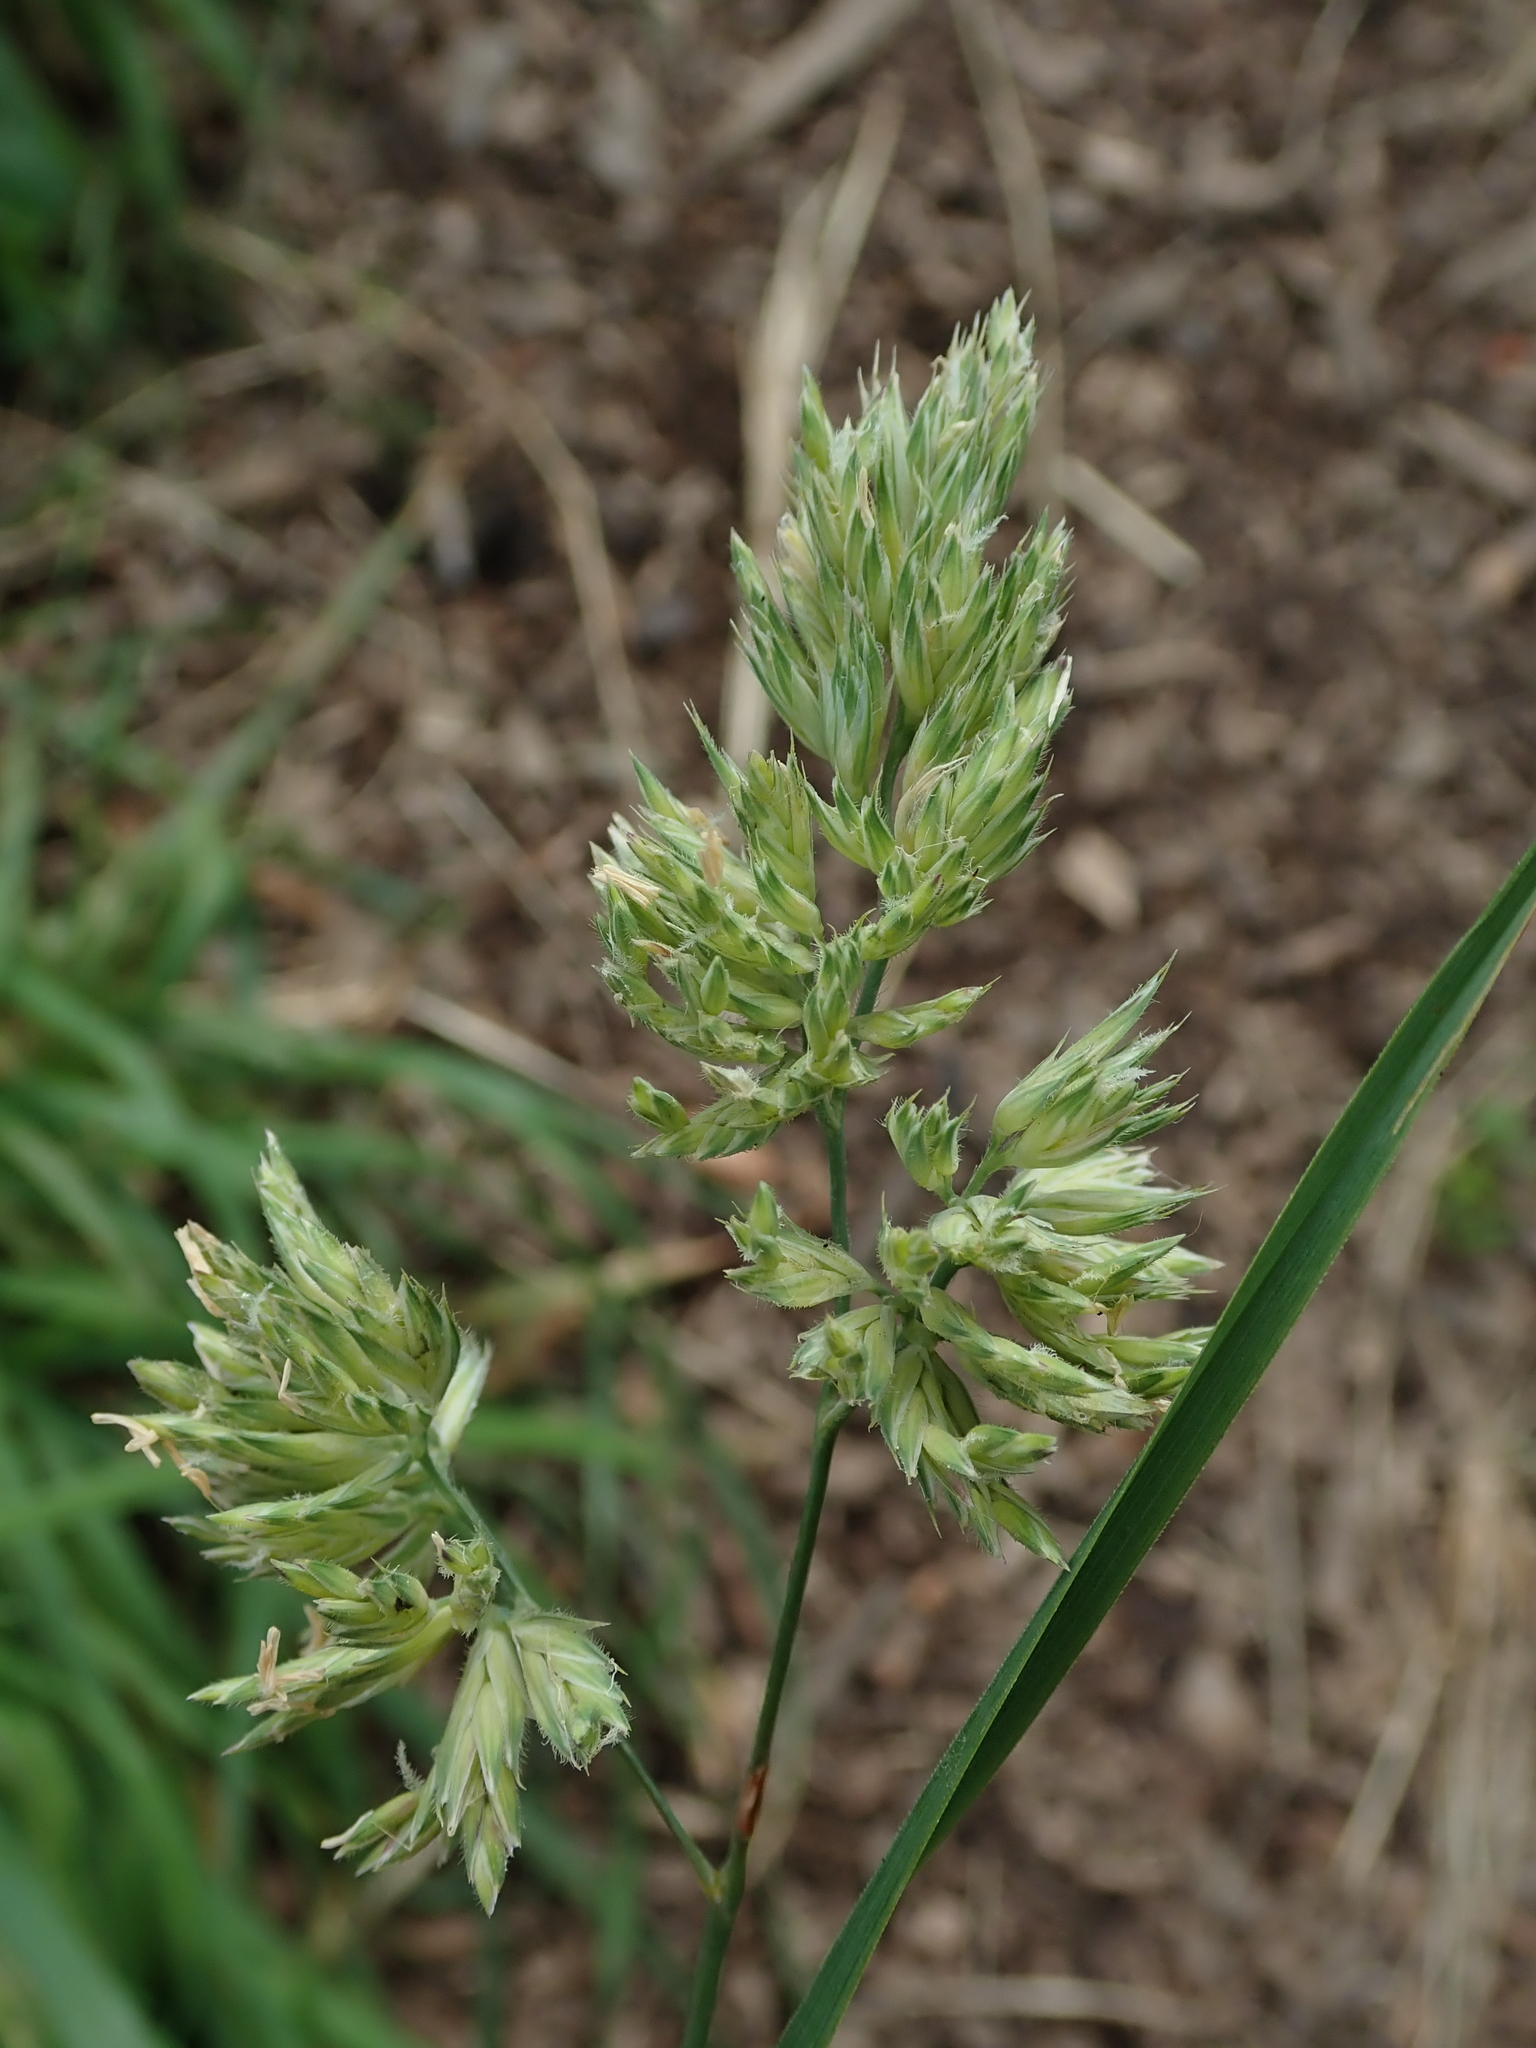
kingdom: Plantae
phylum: Tracheophyta
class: Liliopsida
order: Poales
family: Poaceae
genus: Dactylis
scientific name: Dactylis glomerata
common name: Orchardgrass
